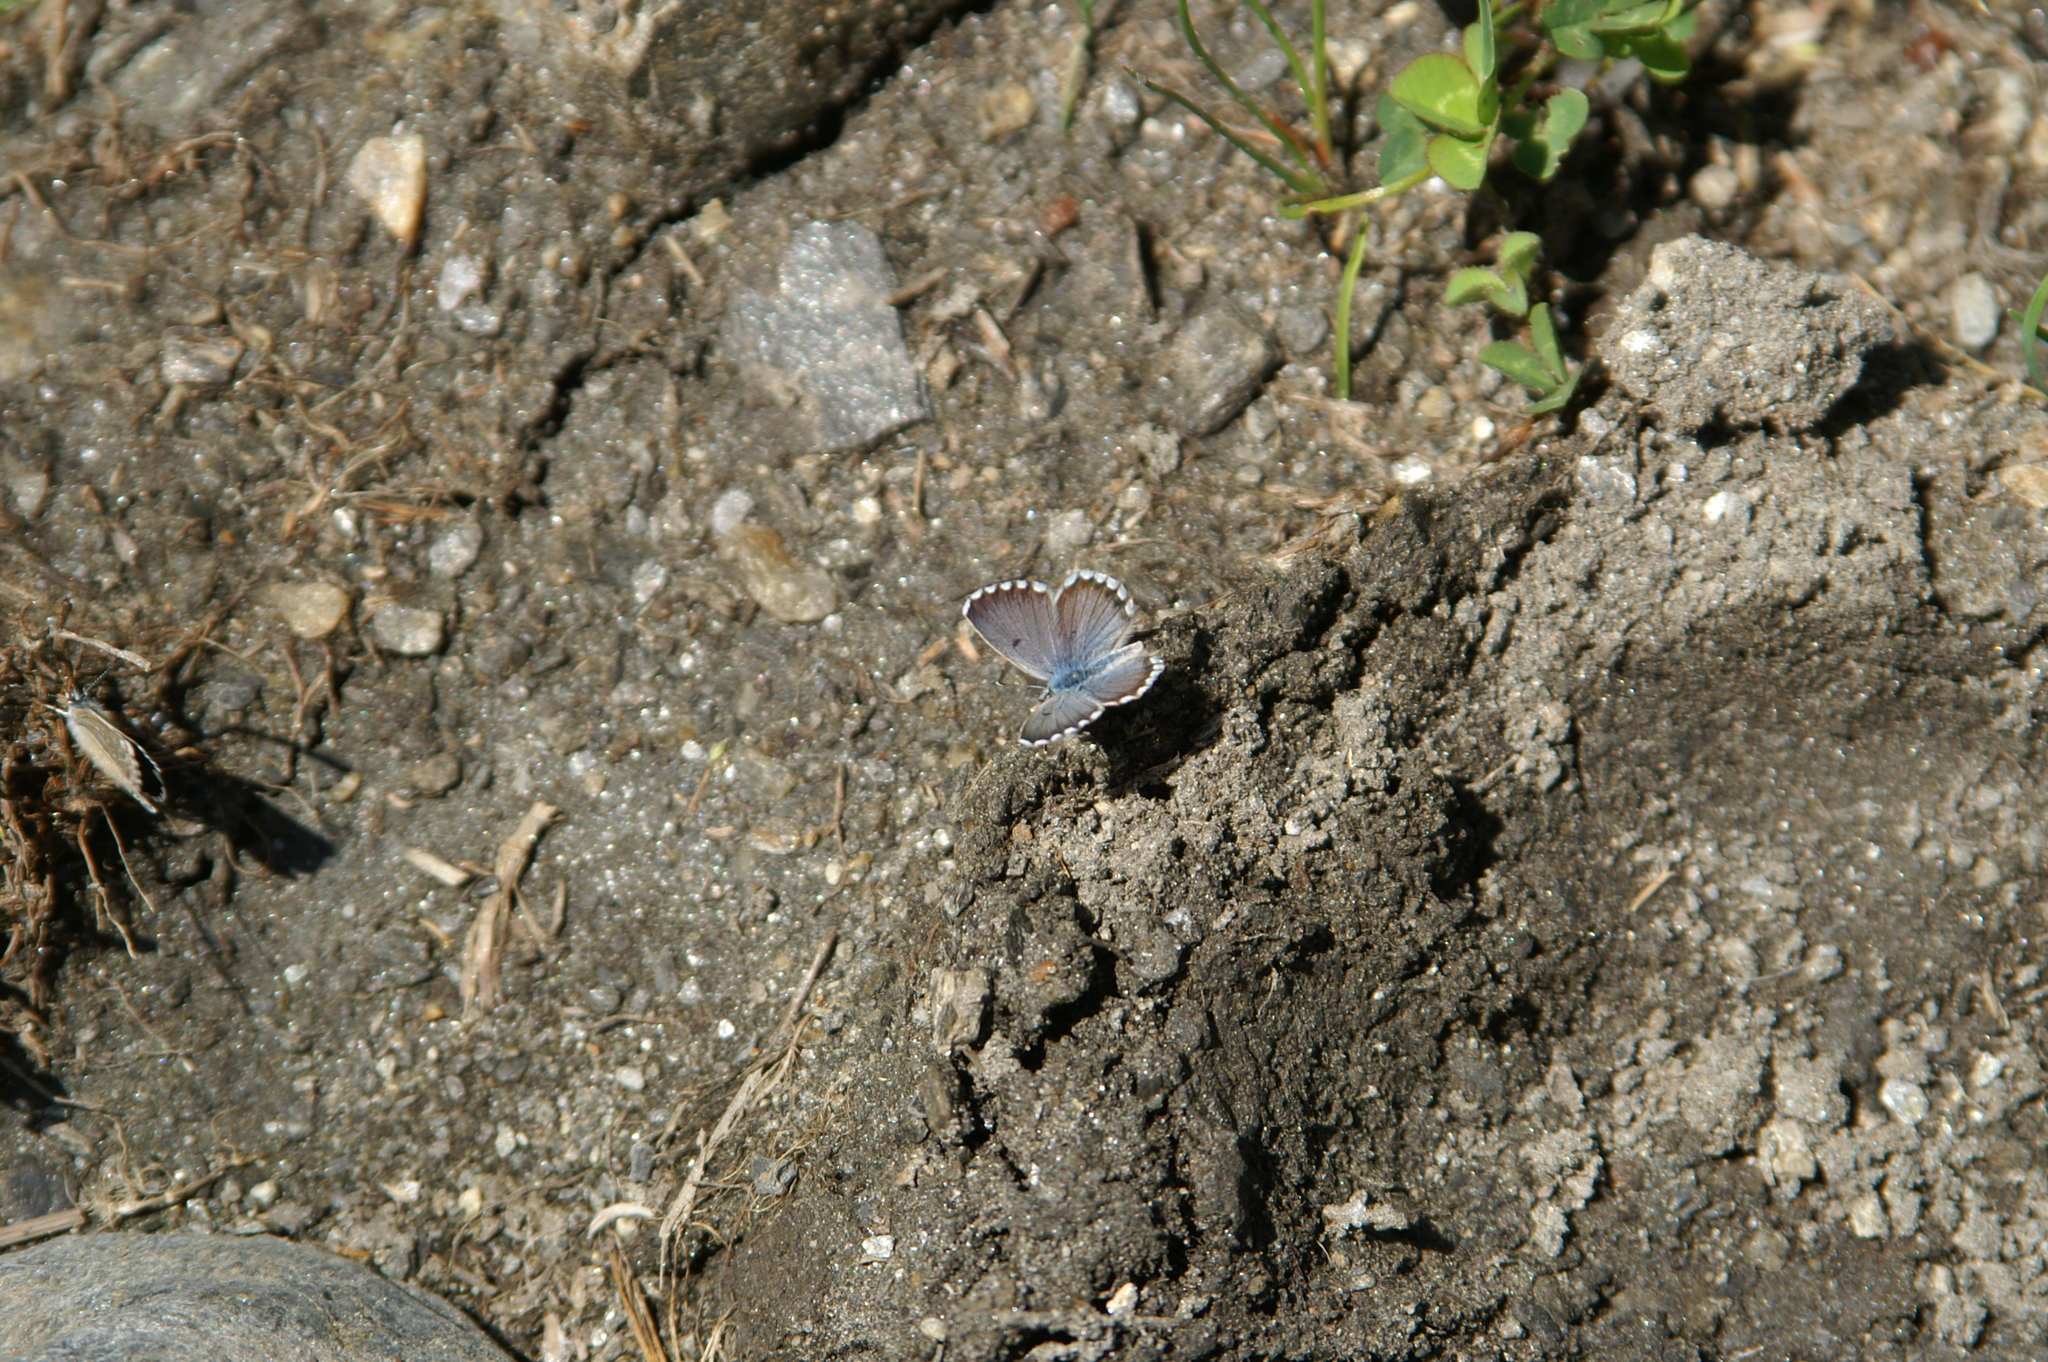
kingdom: Animalia
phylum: Arthropoda
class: Insecta
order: Lepidoptera
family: Lycaenidae
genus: Pseudophilotes
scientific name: Pseudophilotes baton
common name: Baton blue
